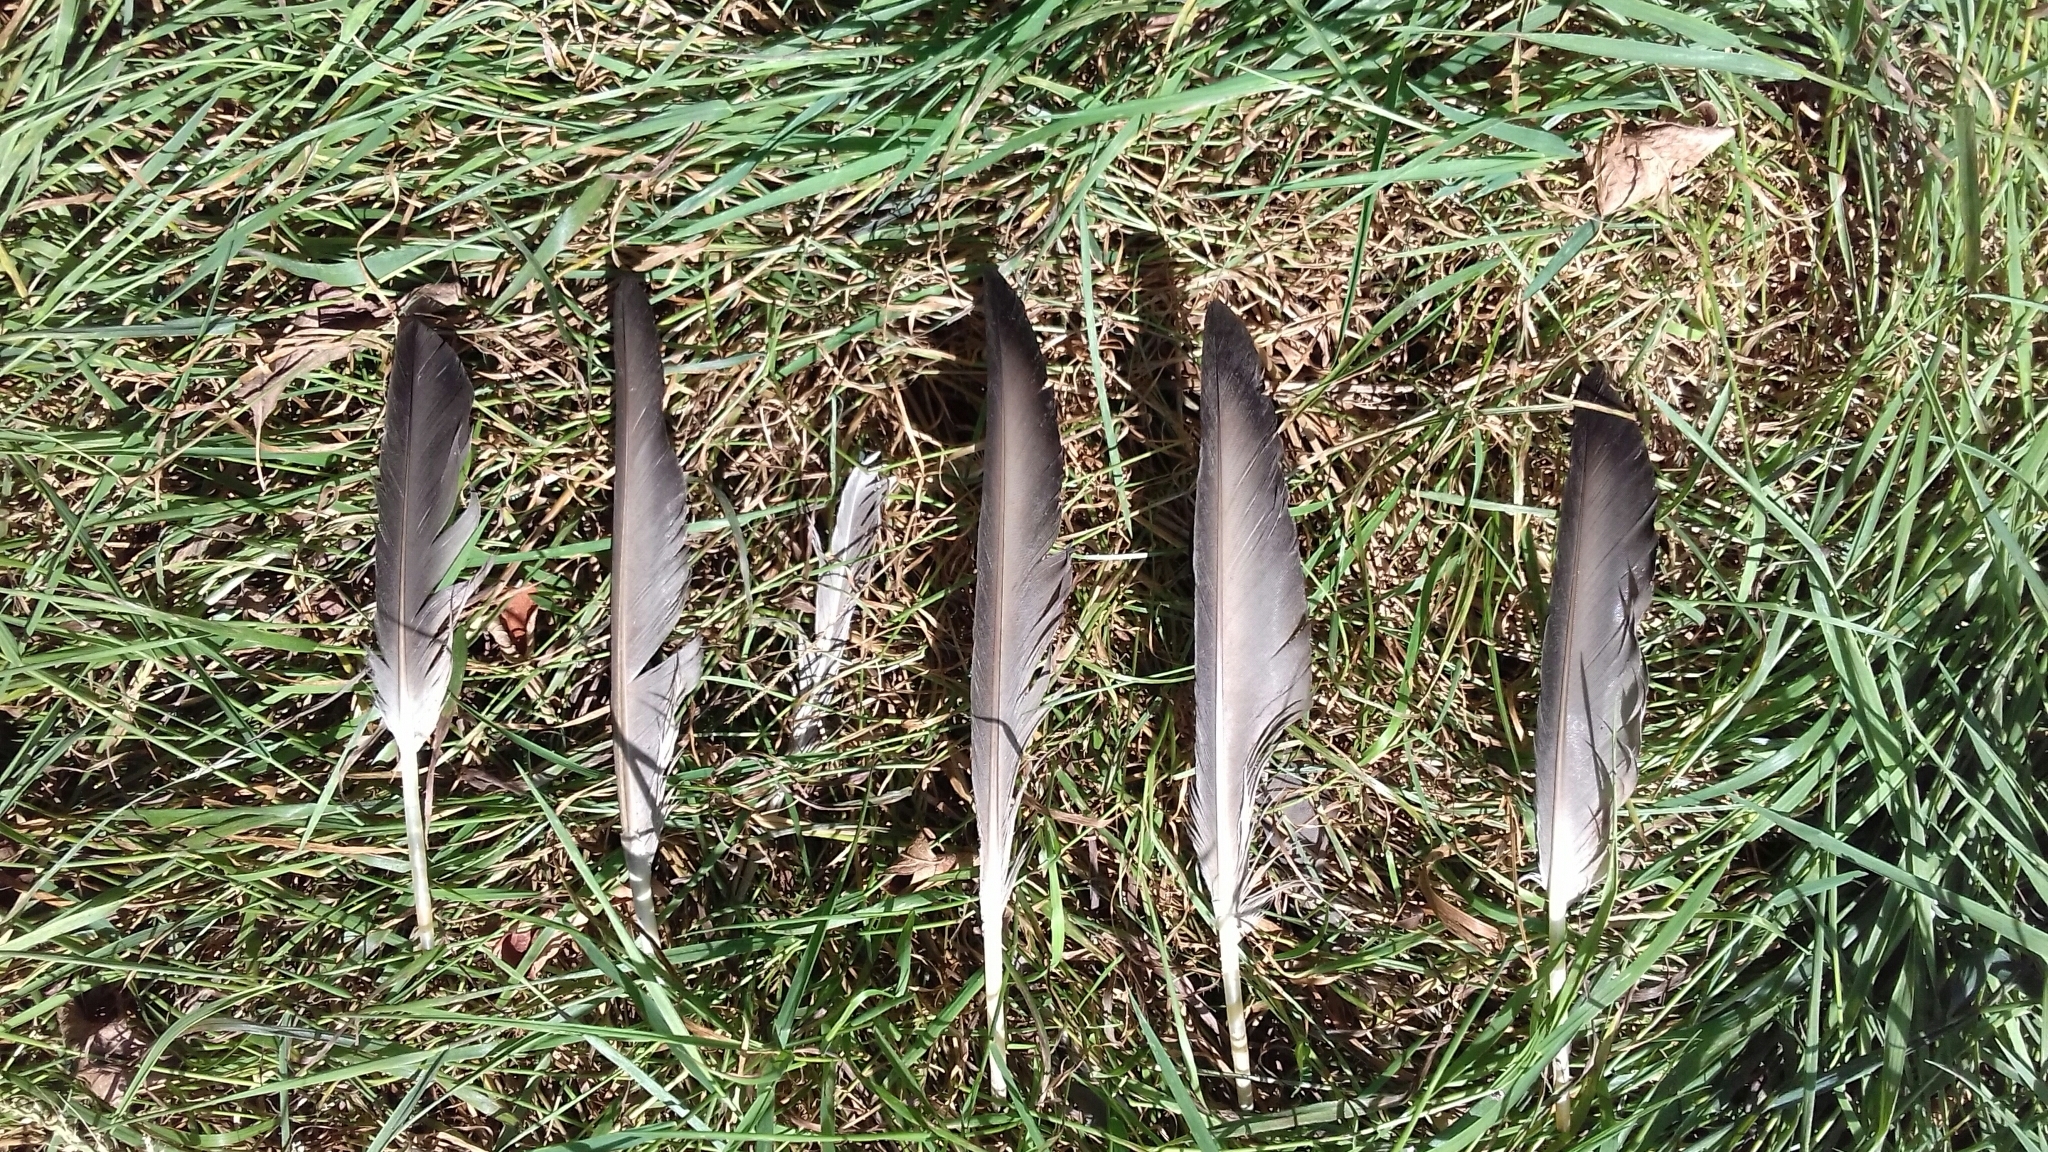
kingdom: Animalia
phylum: Chordata
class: Aves
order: Anseriformes
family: Anatidae
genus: Aythya
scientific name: Aythya ferina
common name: Common pochard
